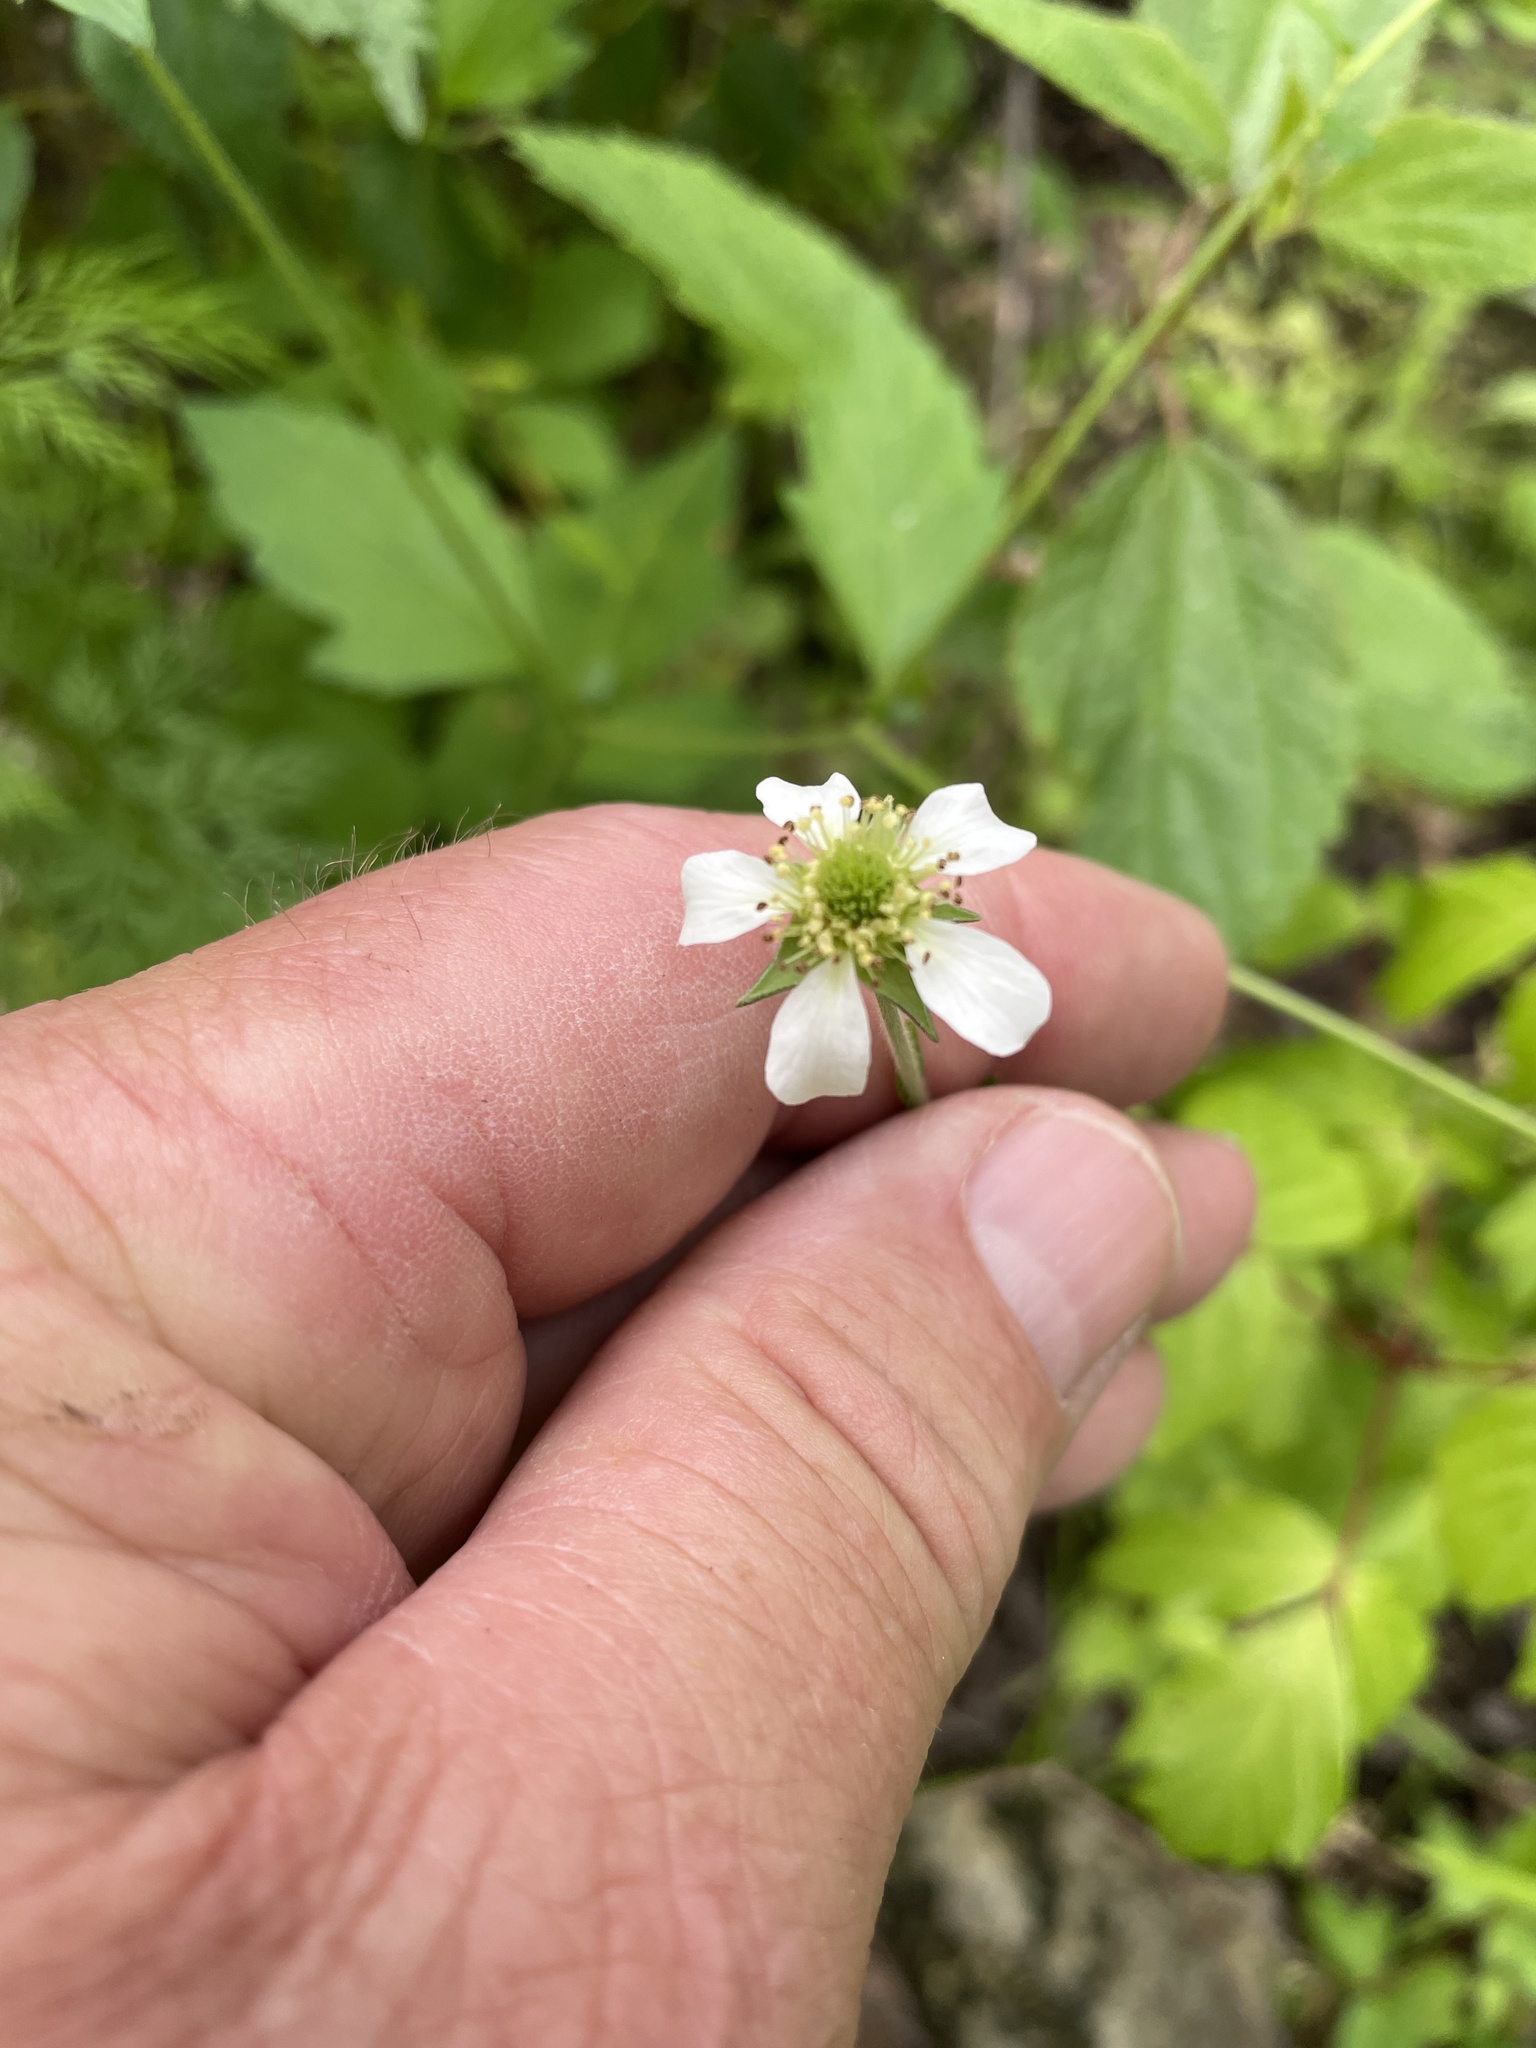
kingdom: Plantae
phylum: Tracheophyta
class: Magnoliopsida
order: Rosales
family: Rosaceae
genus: Geum
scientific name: Geum canadense
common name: White avens
